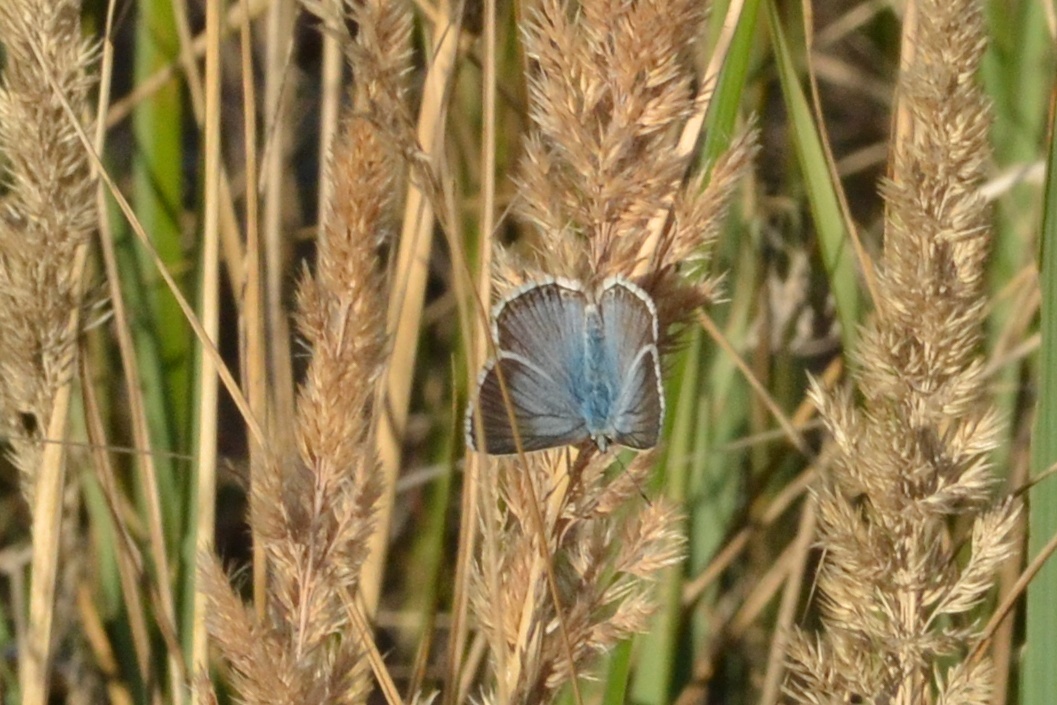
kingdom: Animalia
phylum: Arthropoda
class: Insecta
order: Lepidoptera
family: Lycaenidae
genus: Lysandra
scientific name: Lysandra coridon
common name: Chalkhill blue
